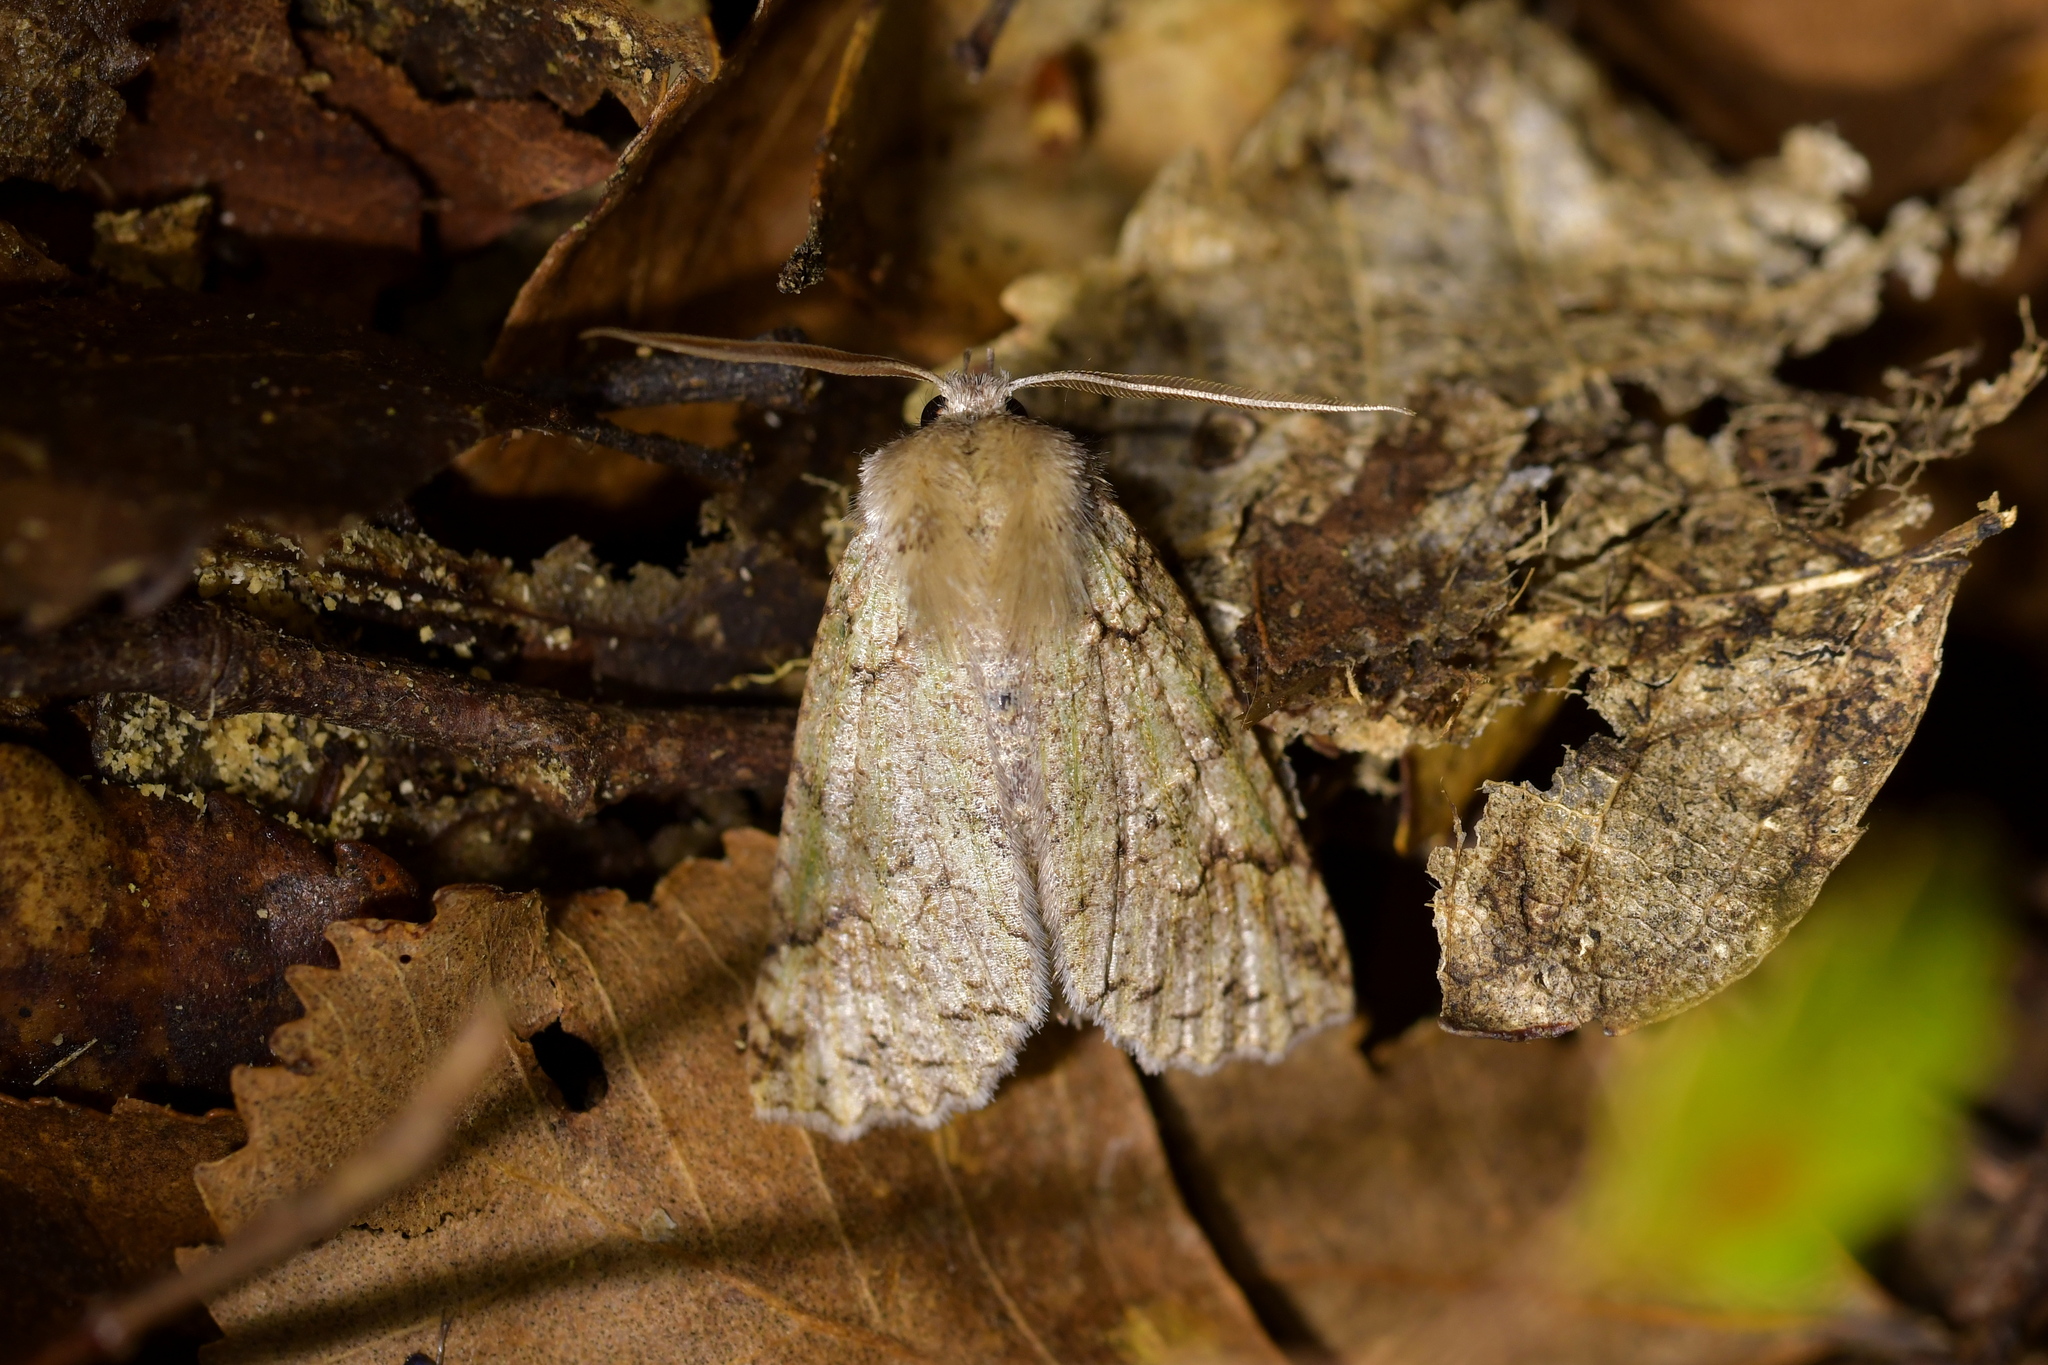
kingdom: Animalia
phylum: Arthropoda
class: Insecta
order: Lepidoptera
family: Geometridae
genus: Declana
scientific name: Declana floccosa
